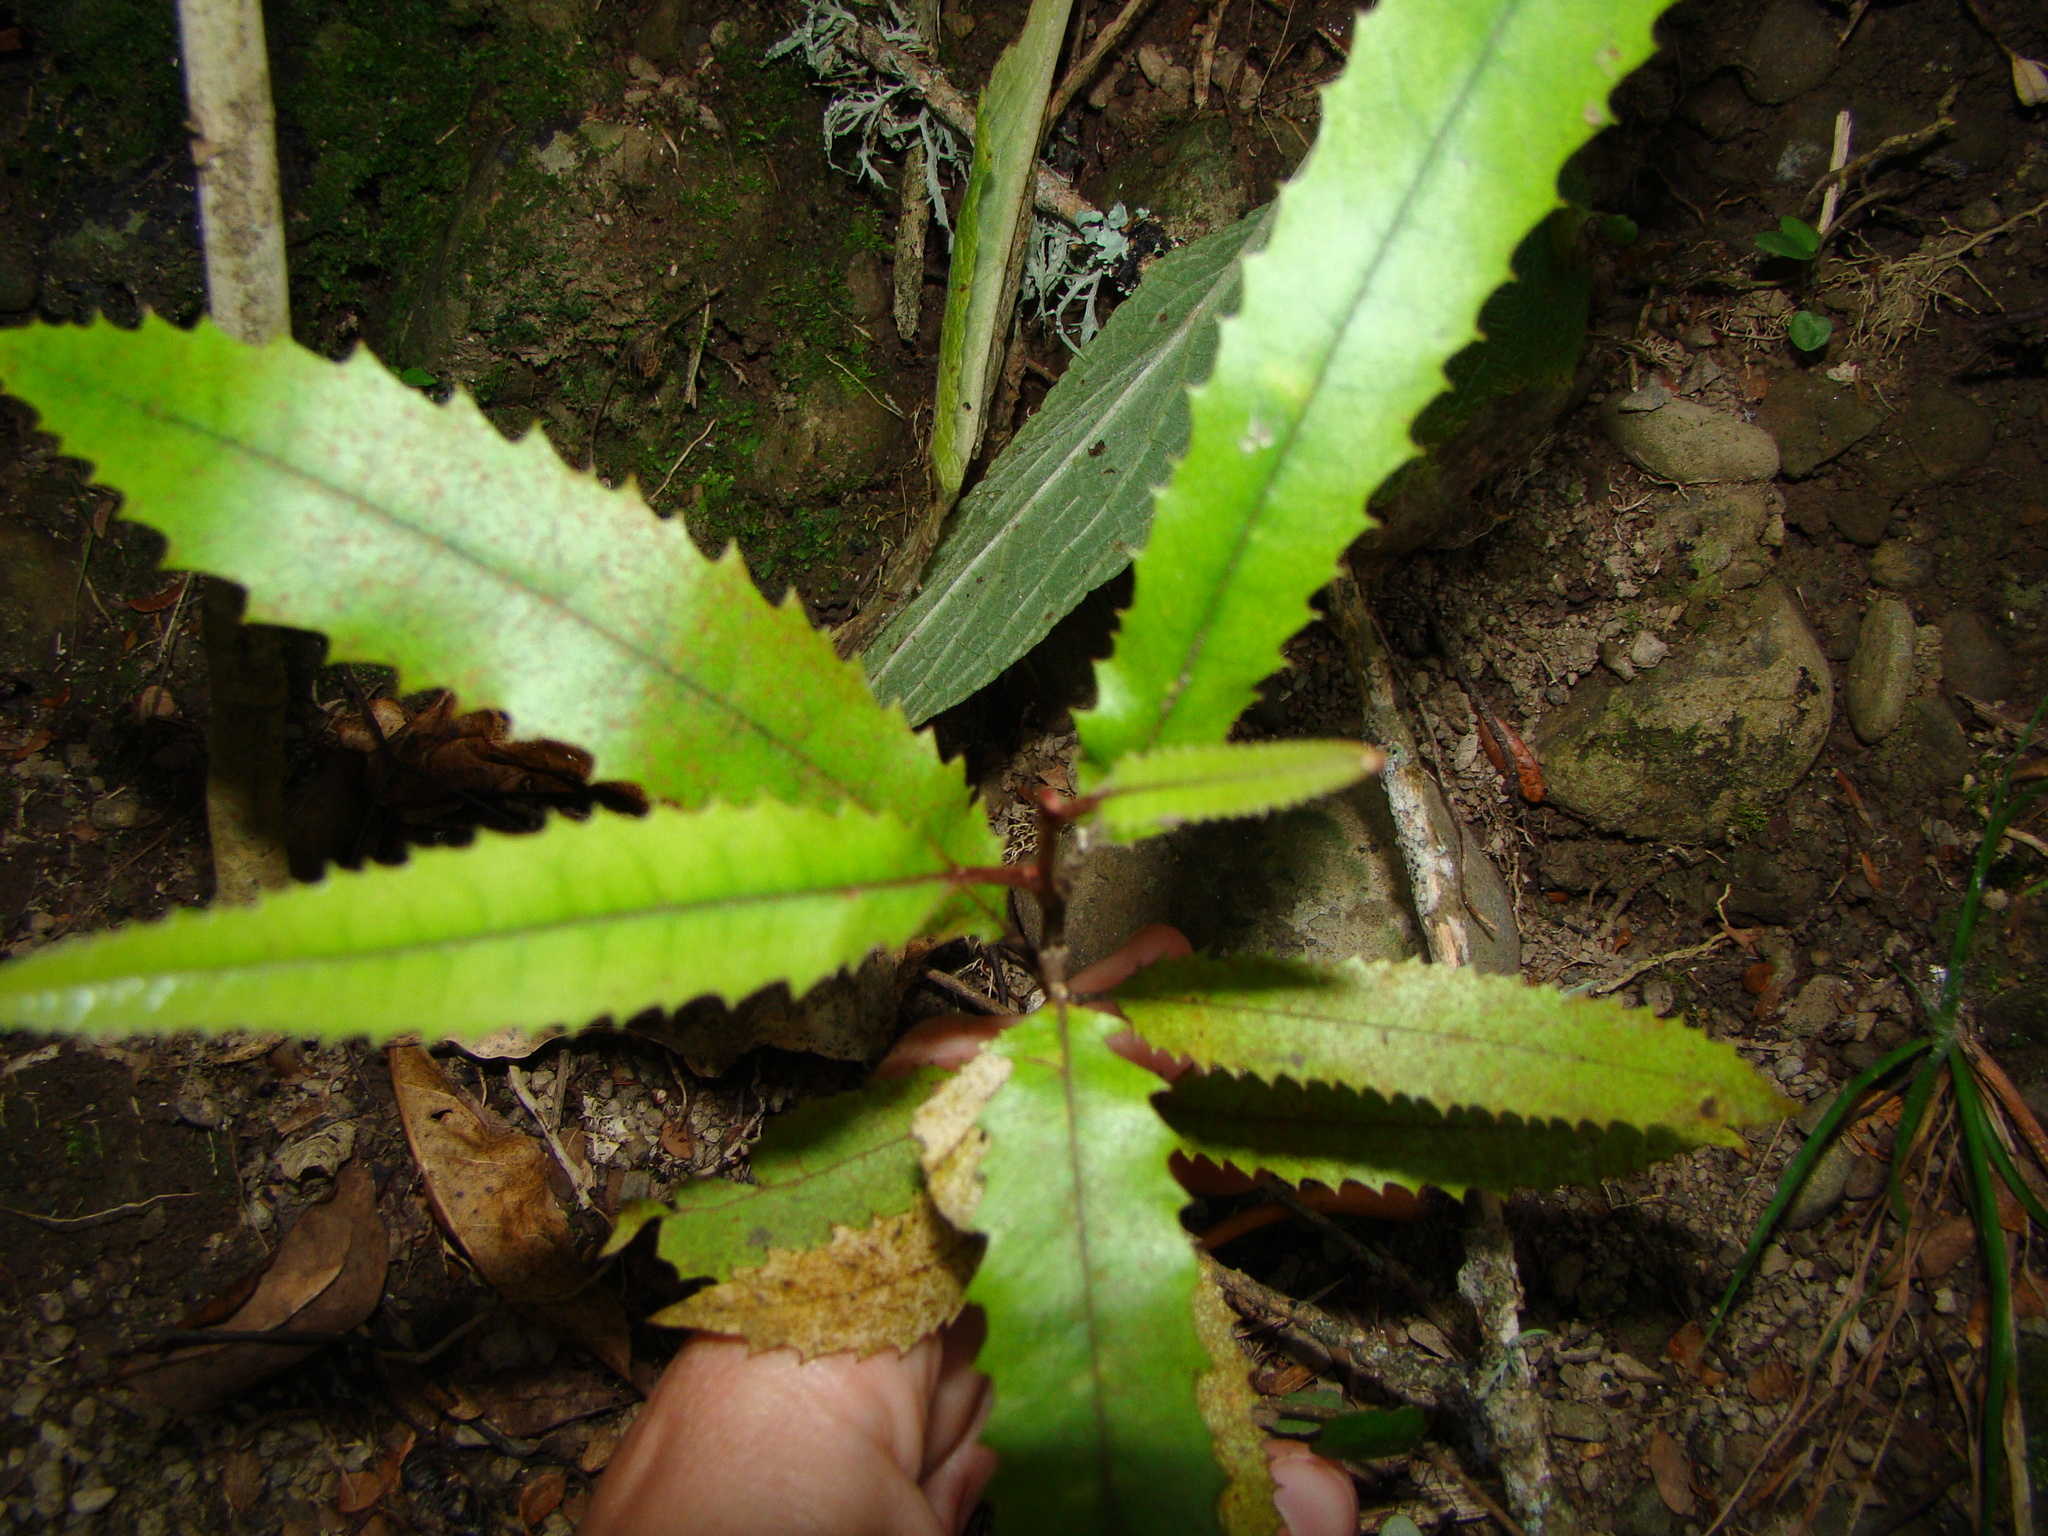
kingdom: Plantae
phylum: Tracheophyta
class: Magnoliopsida
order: Proteales
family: Proteaceae
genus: Knightia
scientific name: Knightia excelsa
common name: New zealand-honeysuckle
